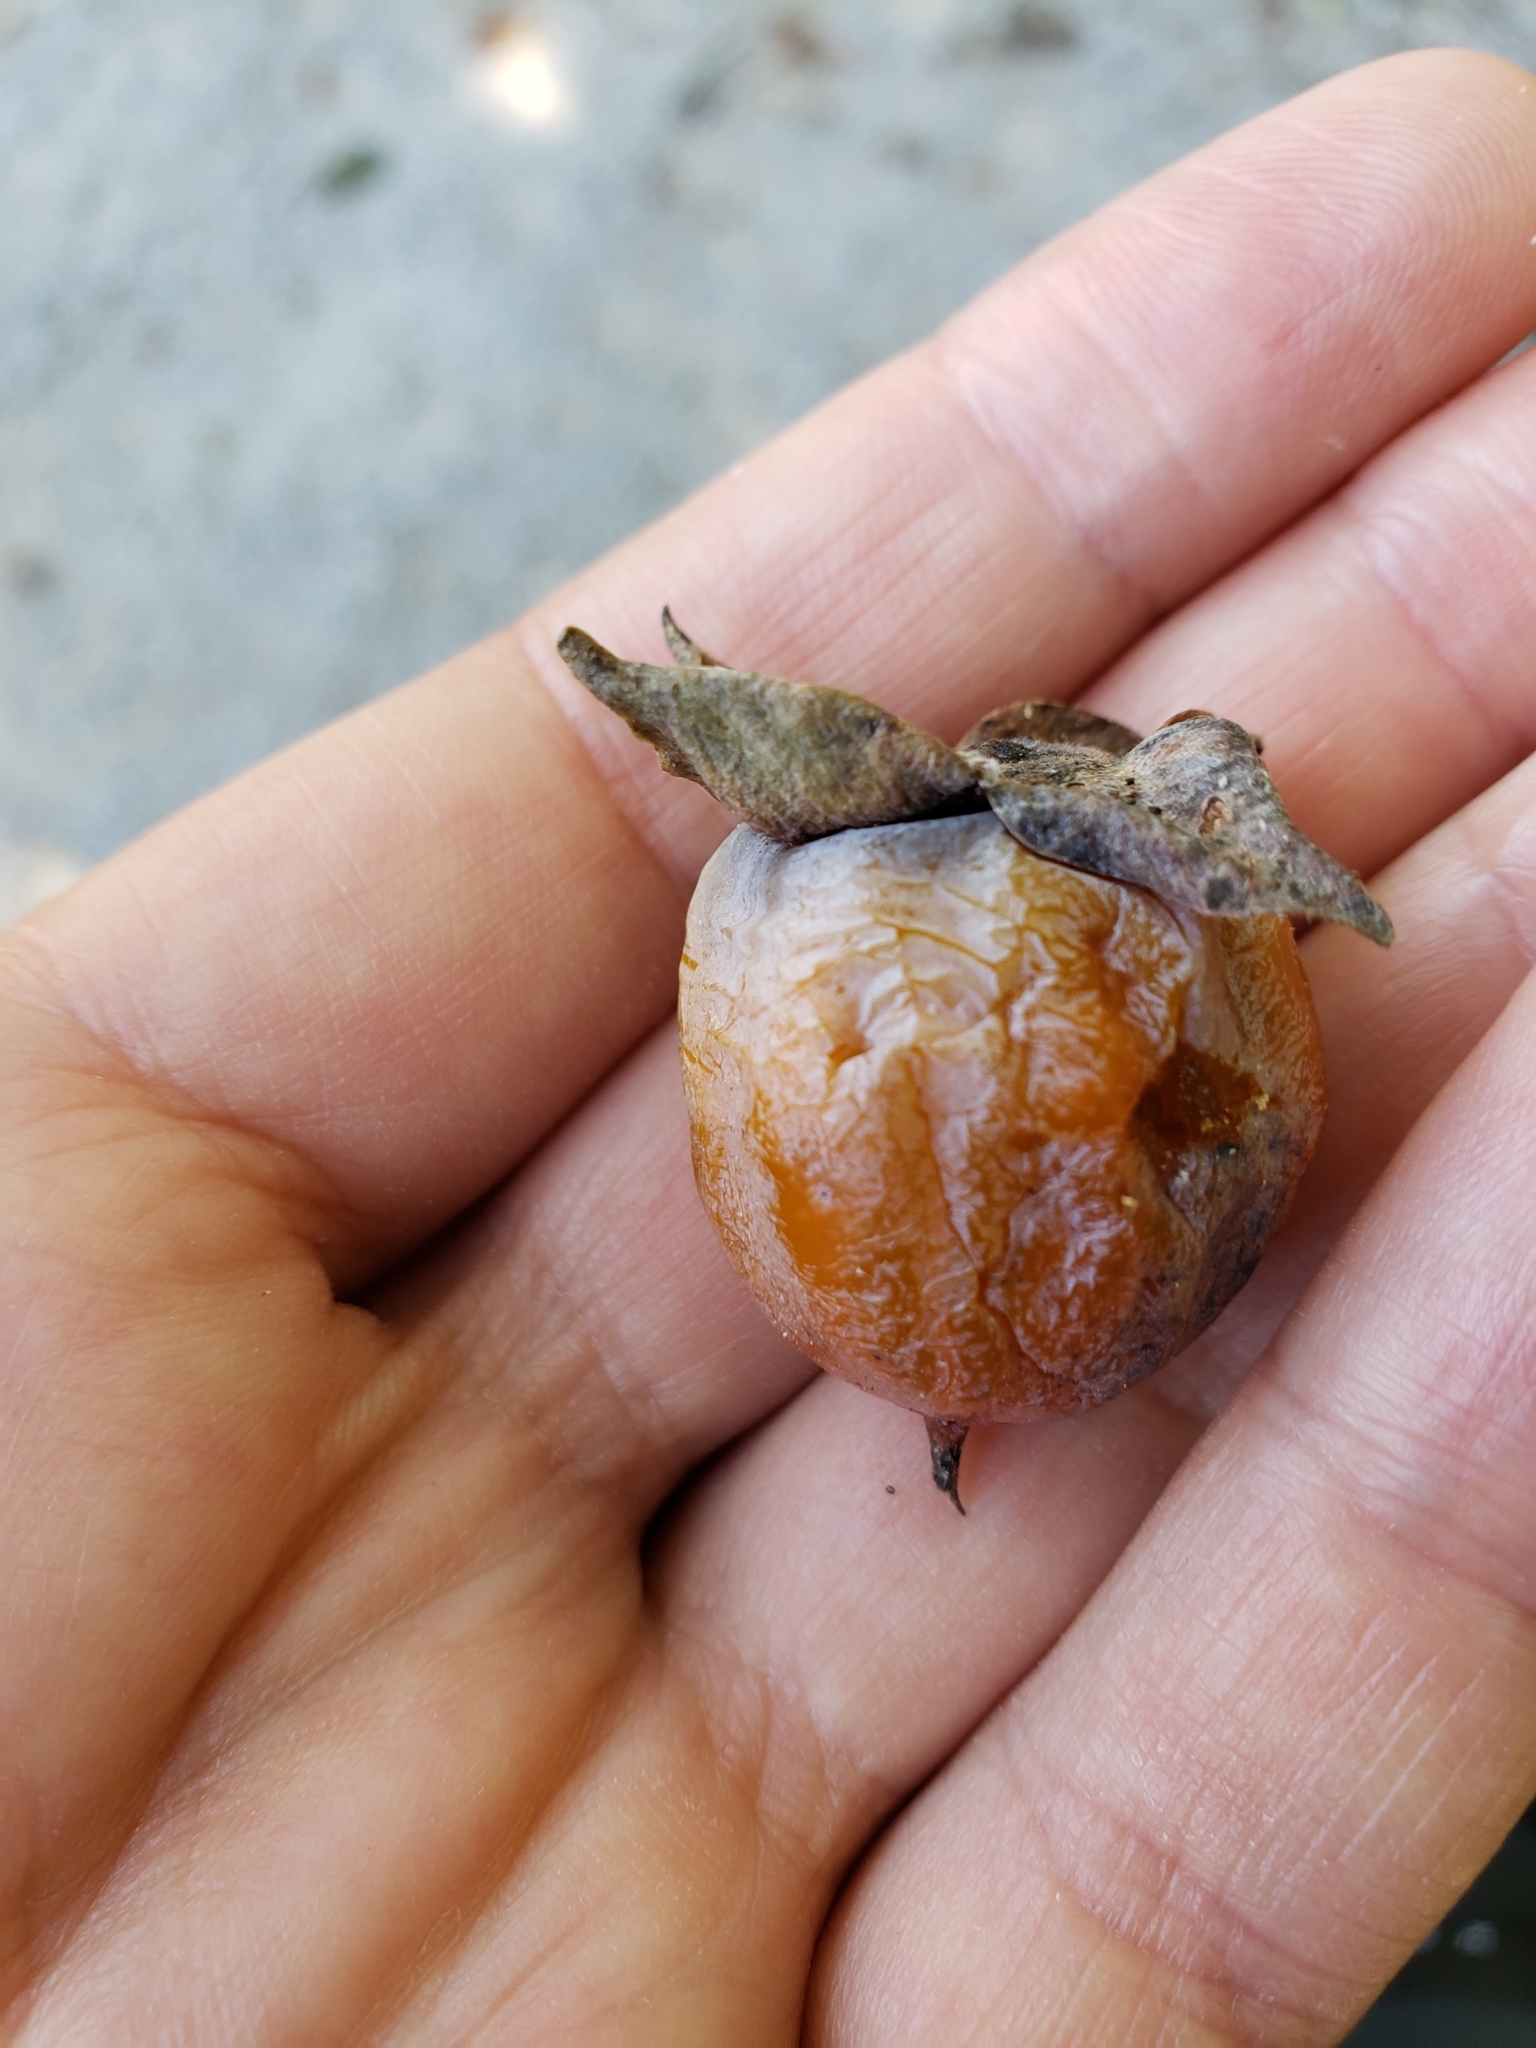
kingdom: Plantae
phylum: Tracheophyta
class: Magnoliopsida
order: Ericales
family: Ebenaceae
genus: Diospyros
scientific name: Diospyros virginiana
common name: Persimmon
